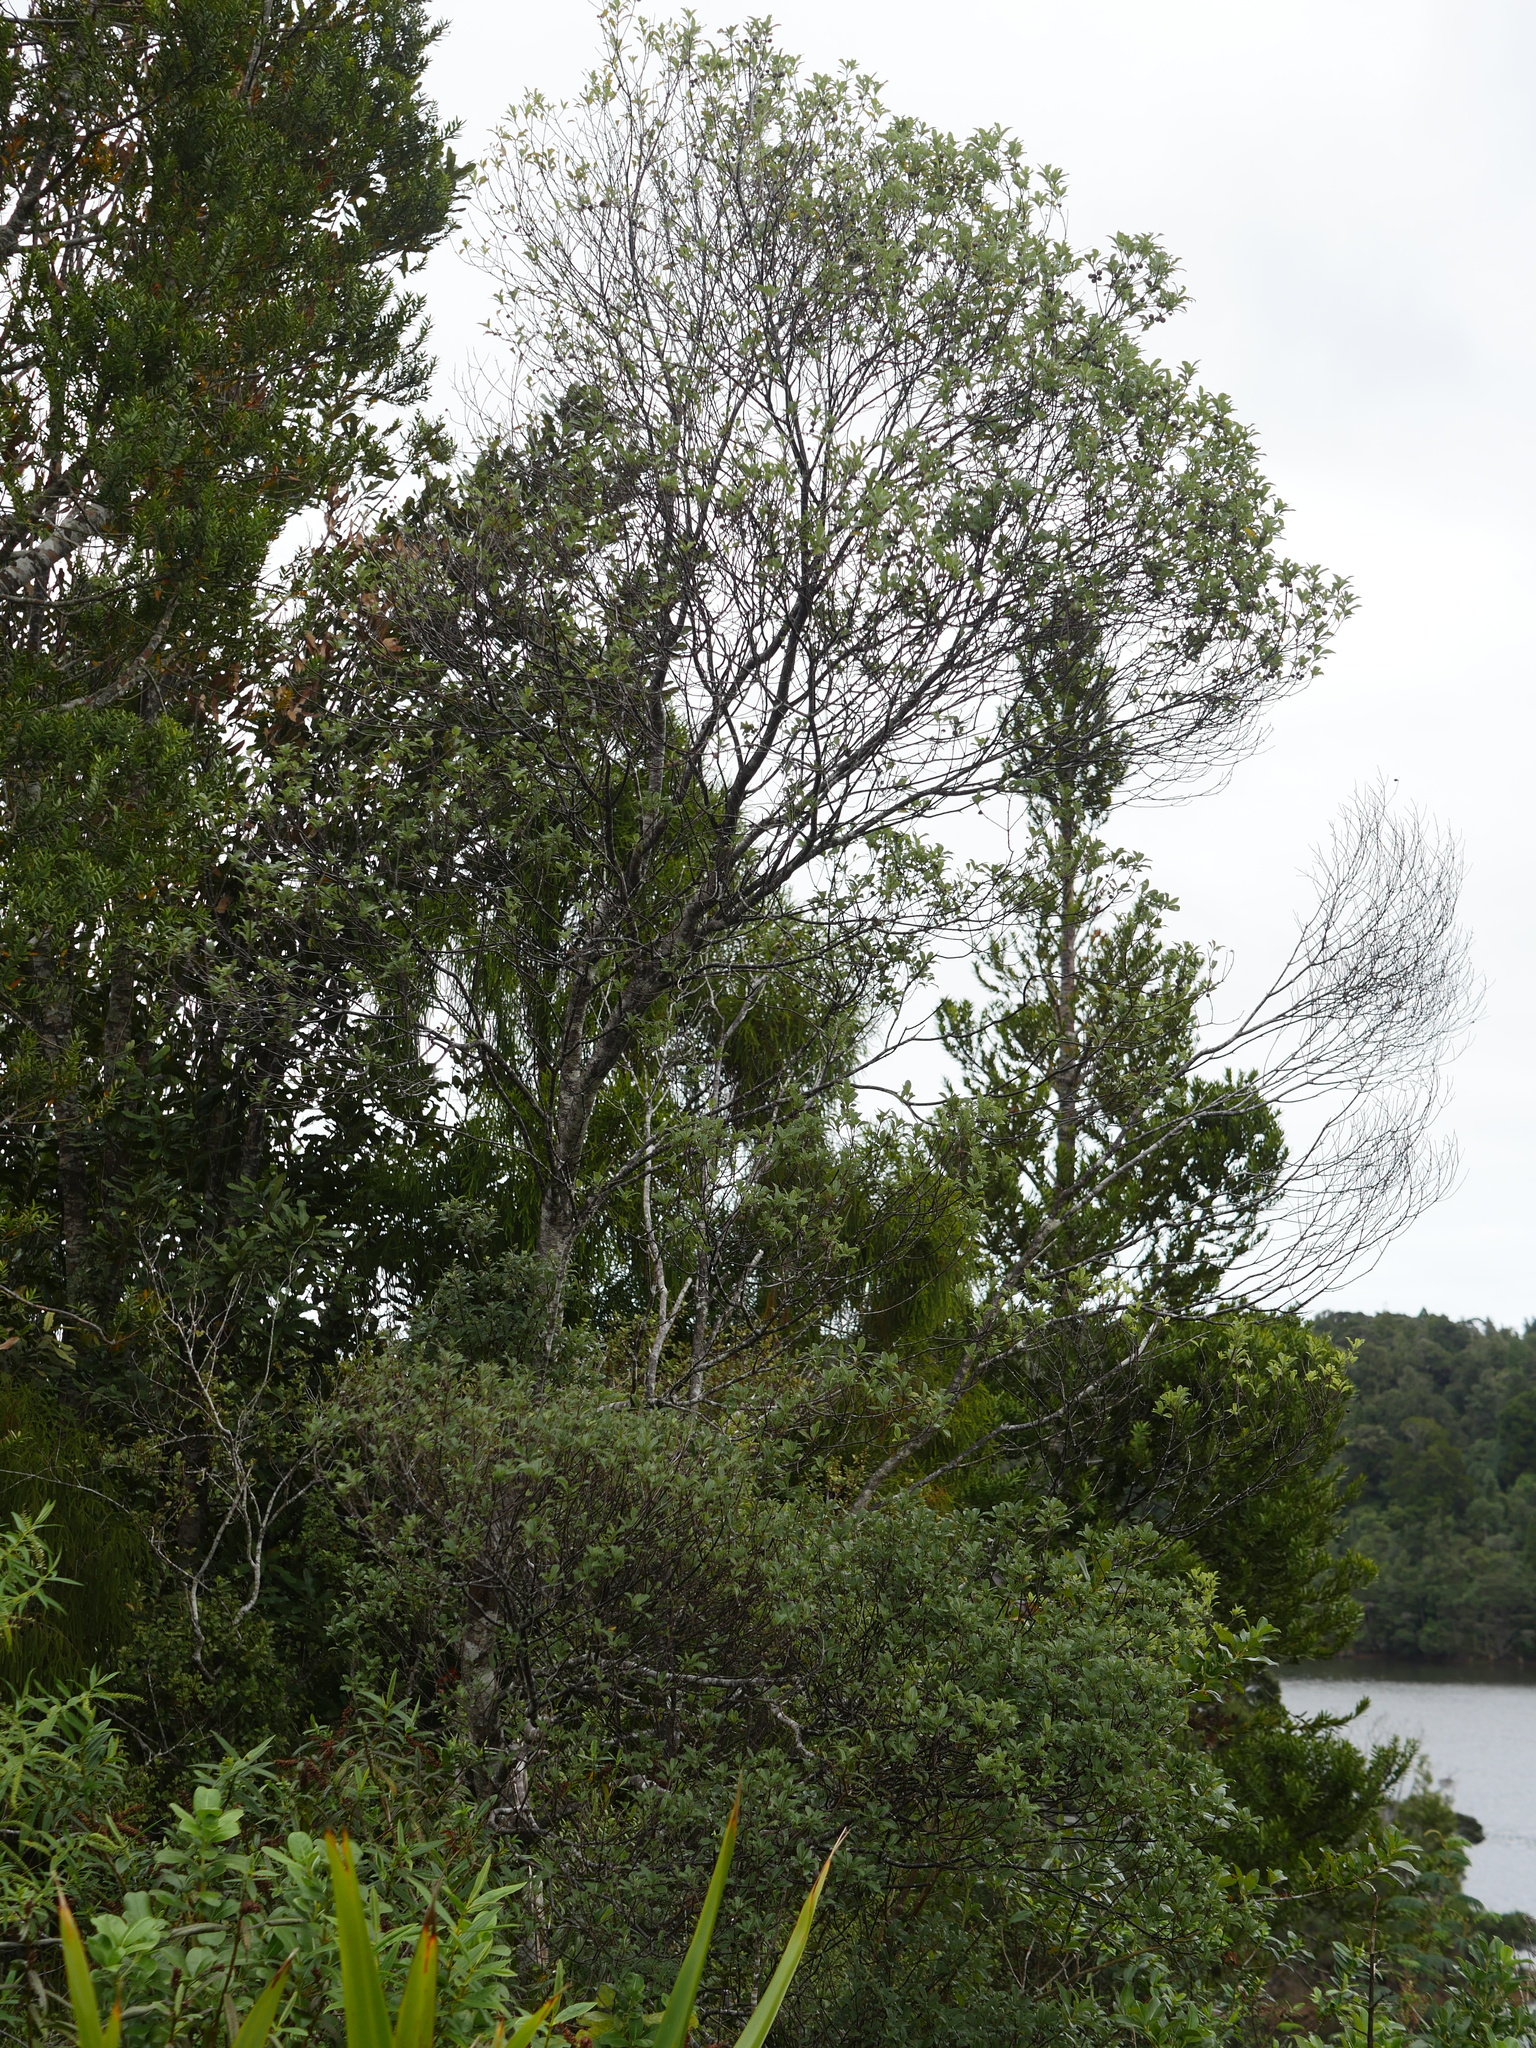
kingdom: Plantae
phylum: Tracheophyta
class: Magnoliopsida
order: Apiales
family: Pittosporaceae
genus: Pittosporum
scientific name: Pittosporum tenuifolium
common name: Kohuhu
